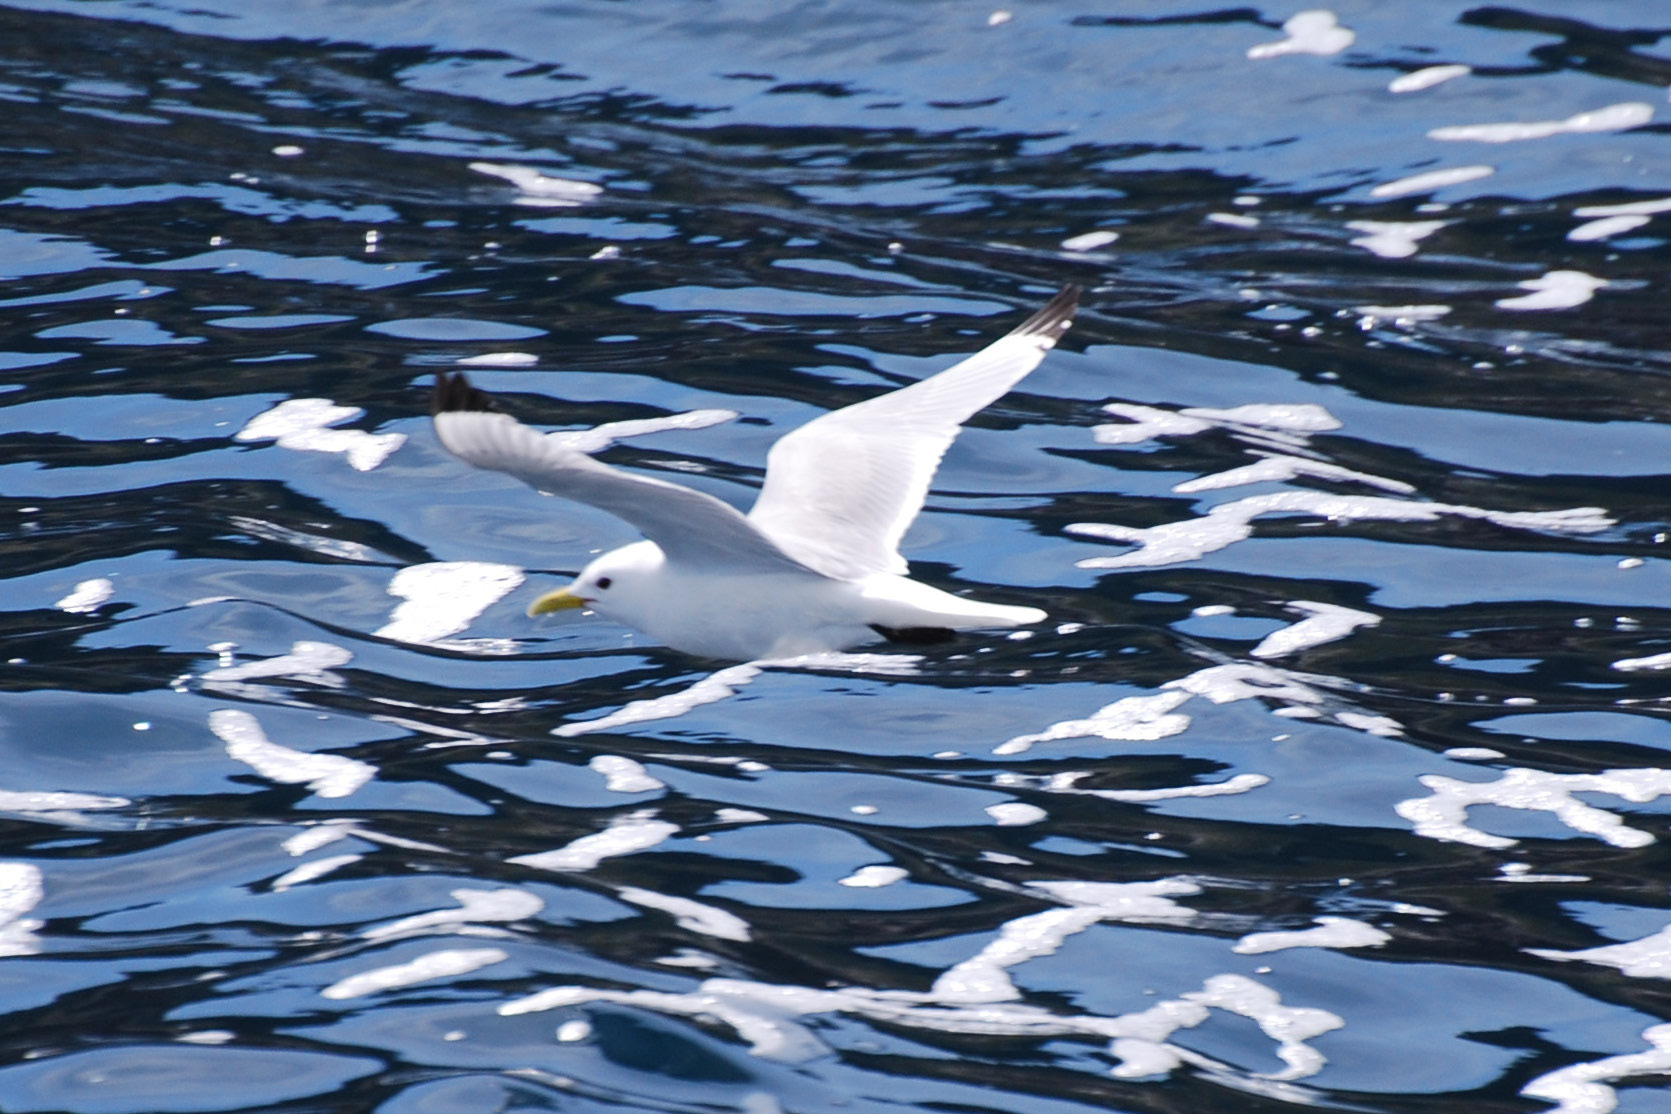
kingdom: Animalia
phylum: Chordata
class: Aves
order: Charadriiformes
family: Laridae
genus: Rissa
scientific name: Rissa tridactyla
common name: Black-legged kittiwake
